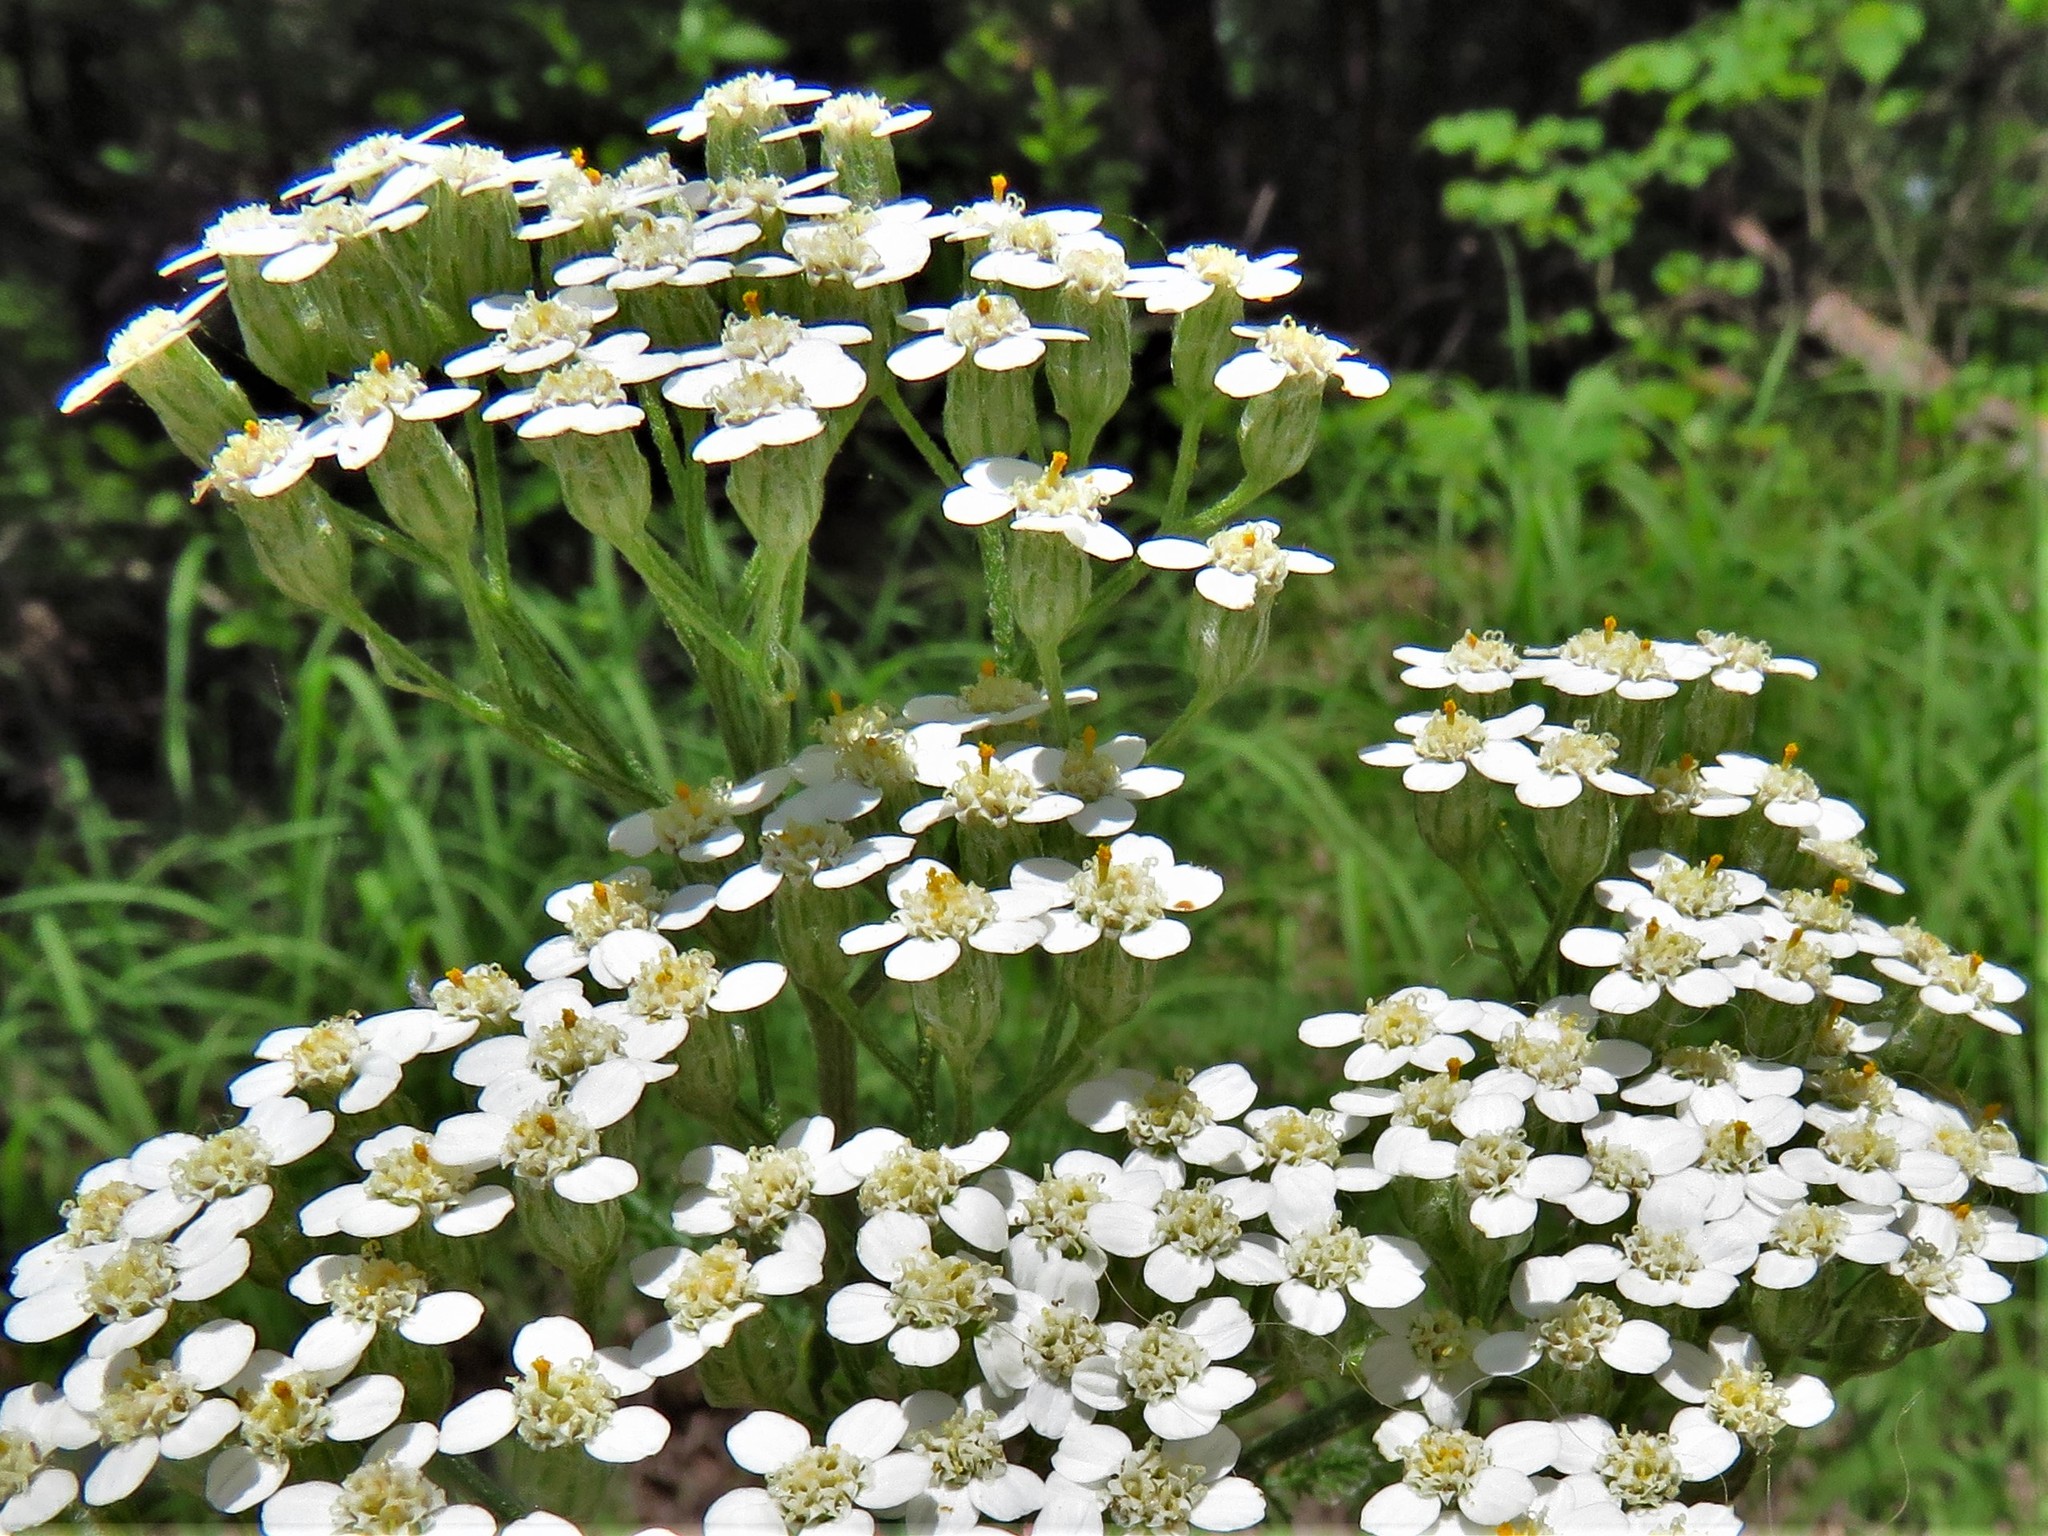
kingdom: Plantae
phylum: Tracheophyta
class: Magnoliopsida
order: Asterales
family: Asteraceae
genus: Achillea
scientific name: Achillea millefolium
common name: Yarrow
